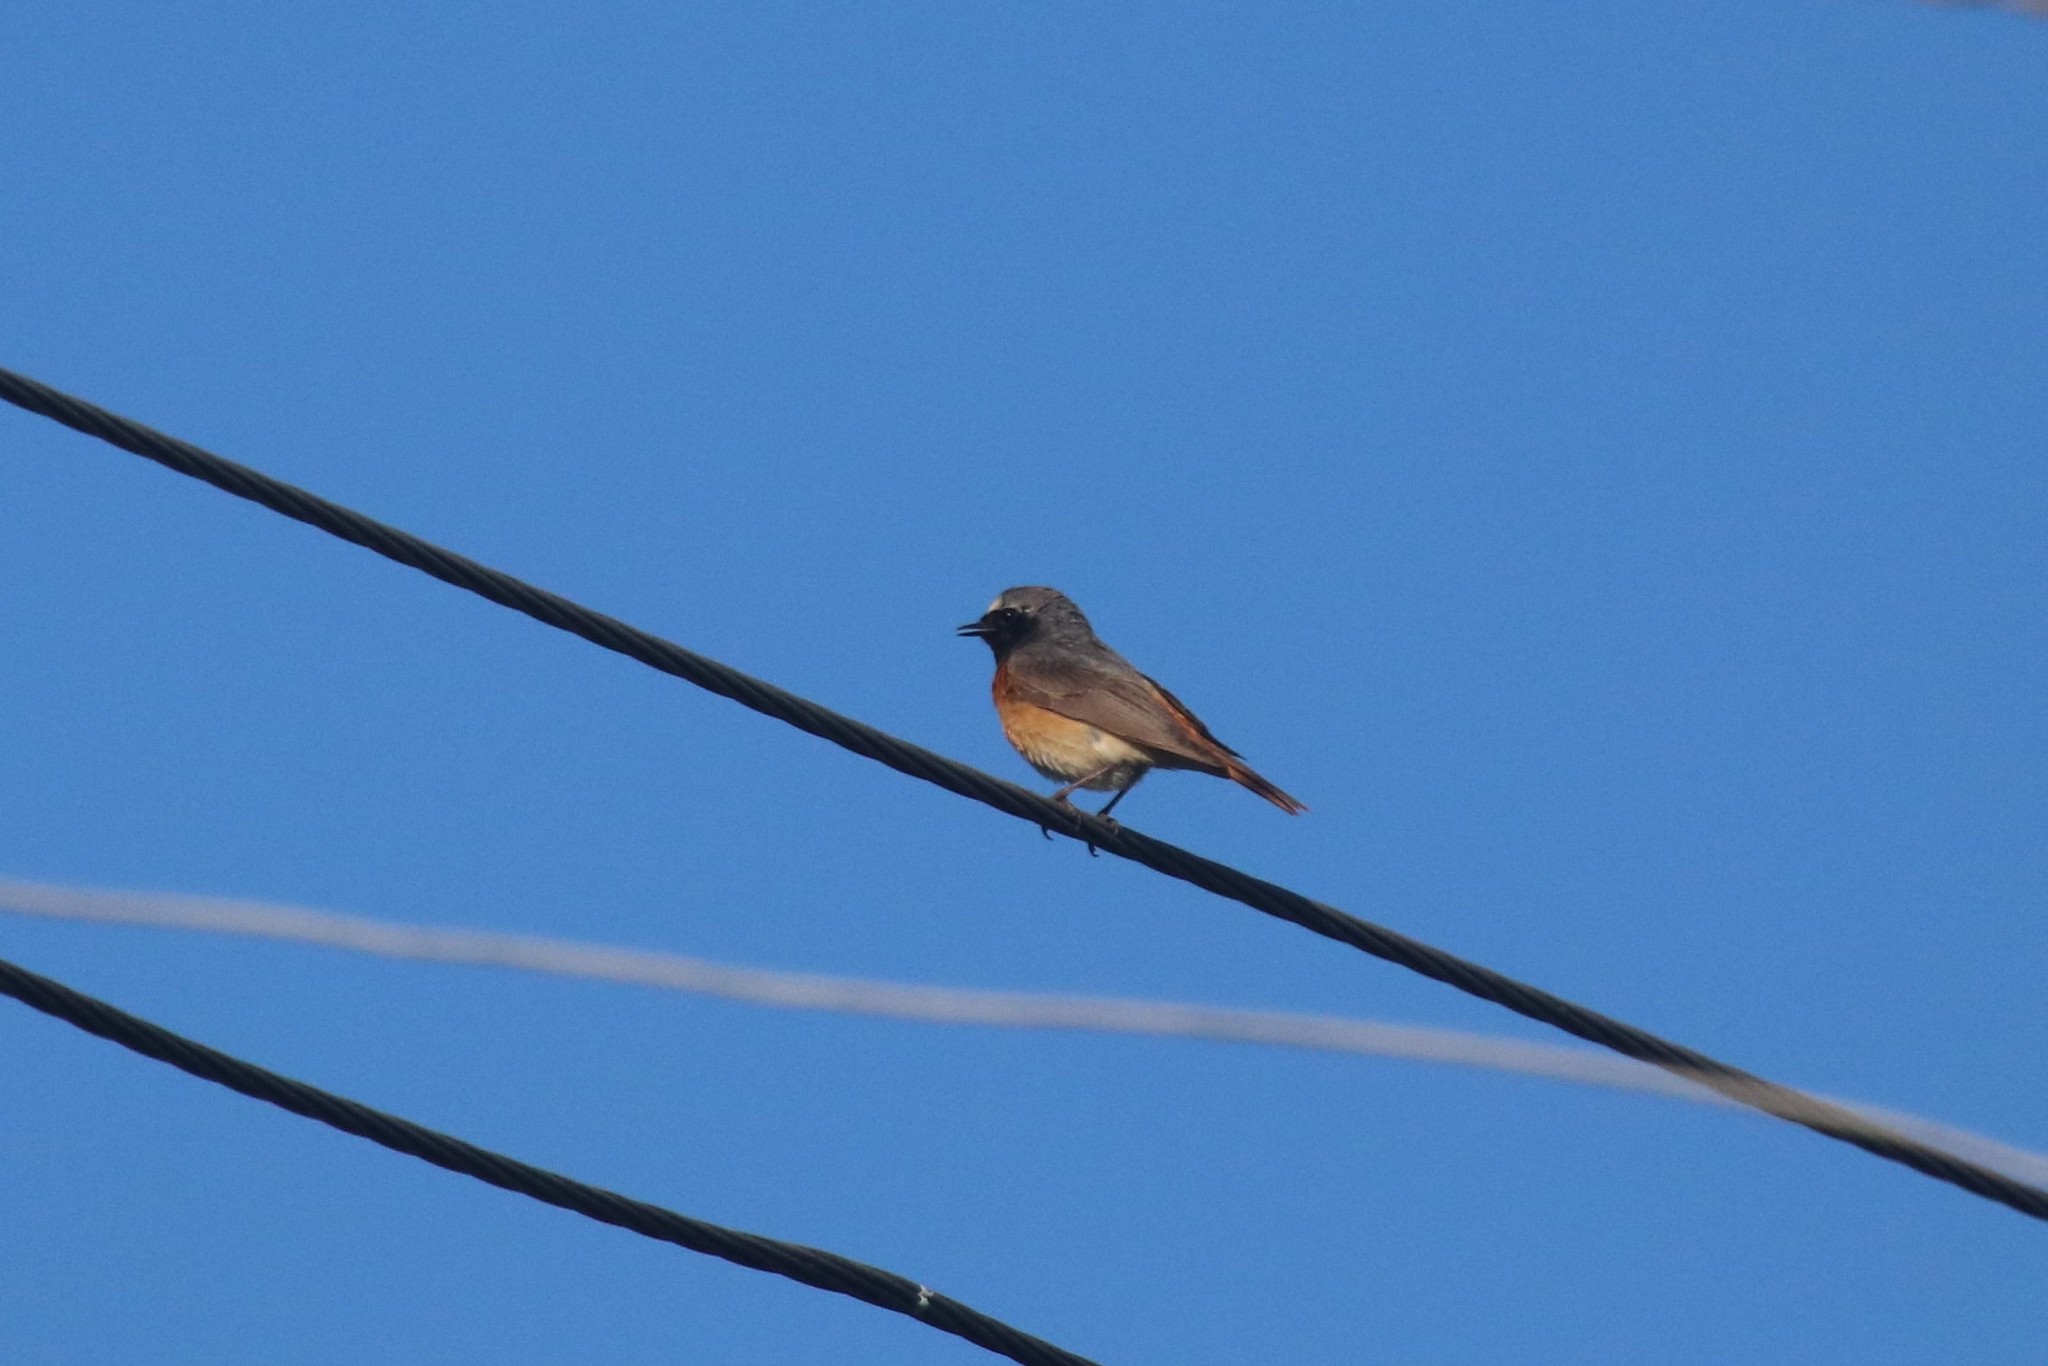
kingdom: Animalia
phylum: Chordata
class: Aves
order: Passeriformes
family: Muscicapidae
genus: Phoenicurus
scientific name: Phoenicurus phoenicurus
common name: Common redstart
